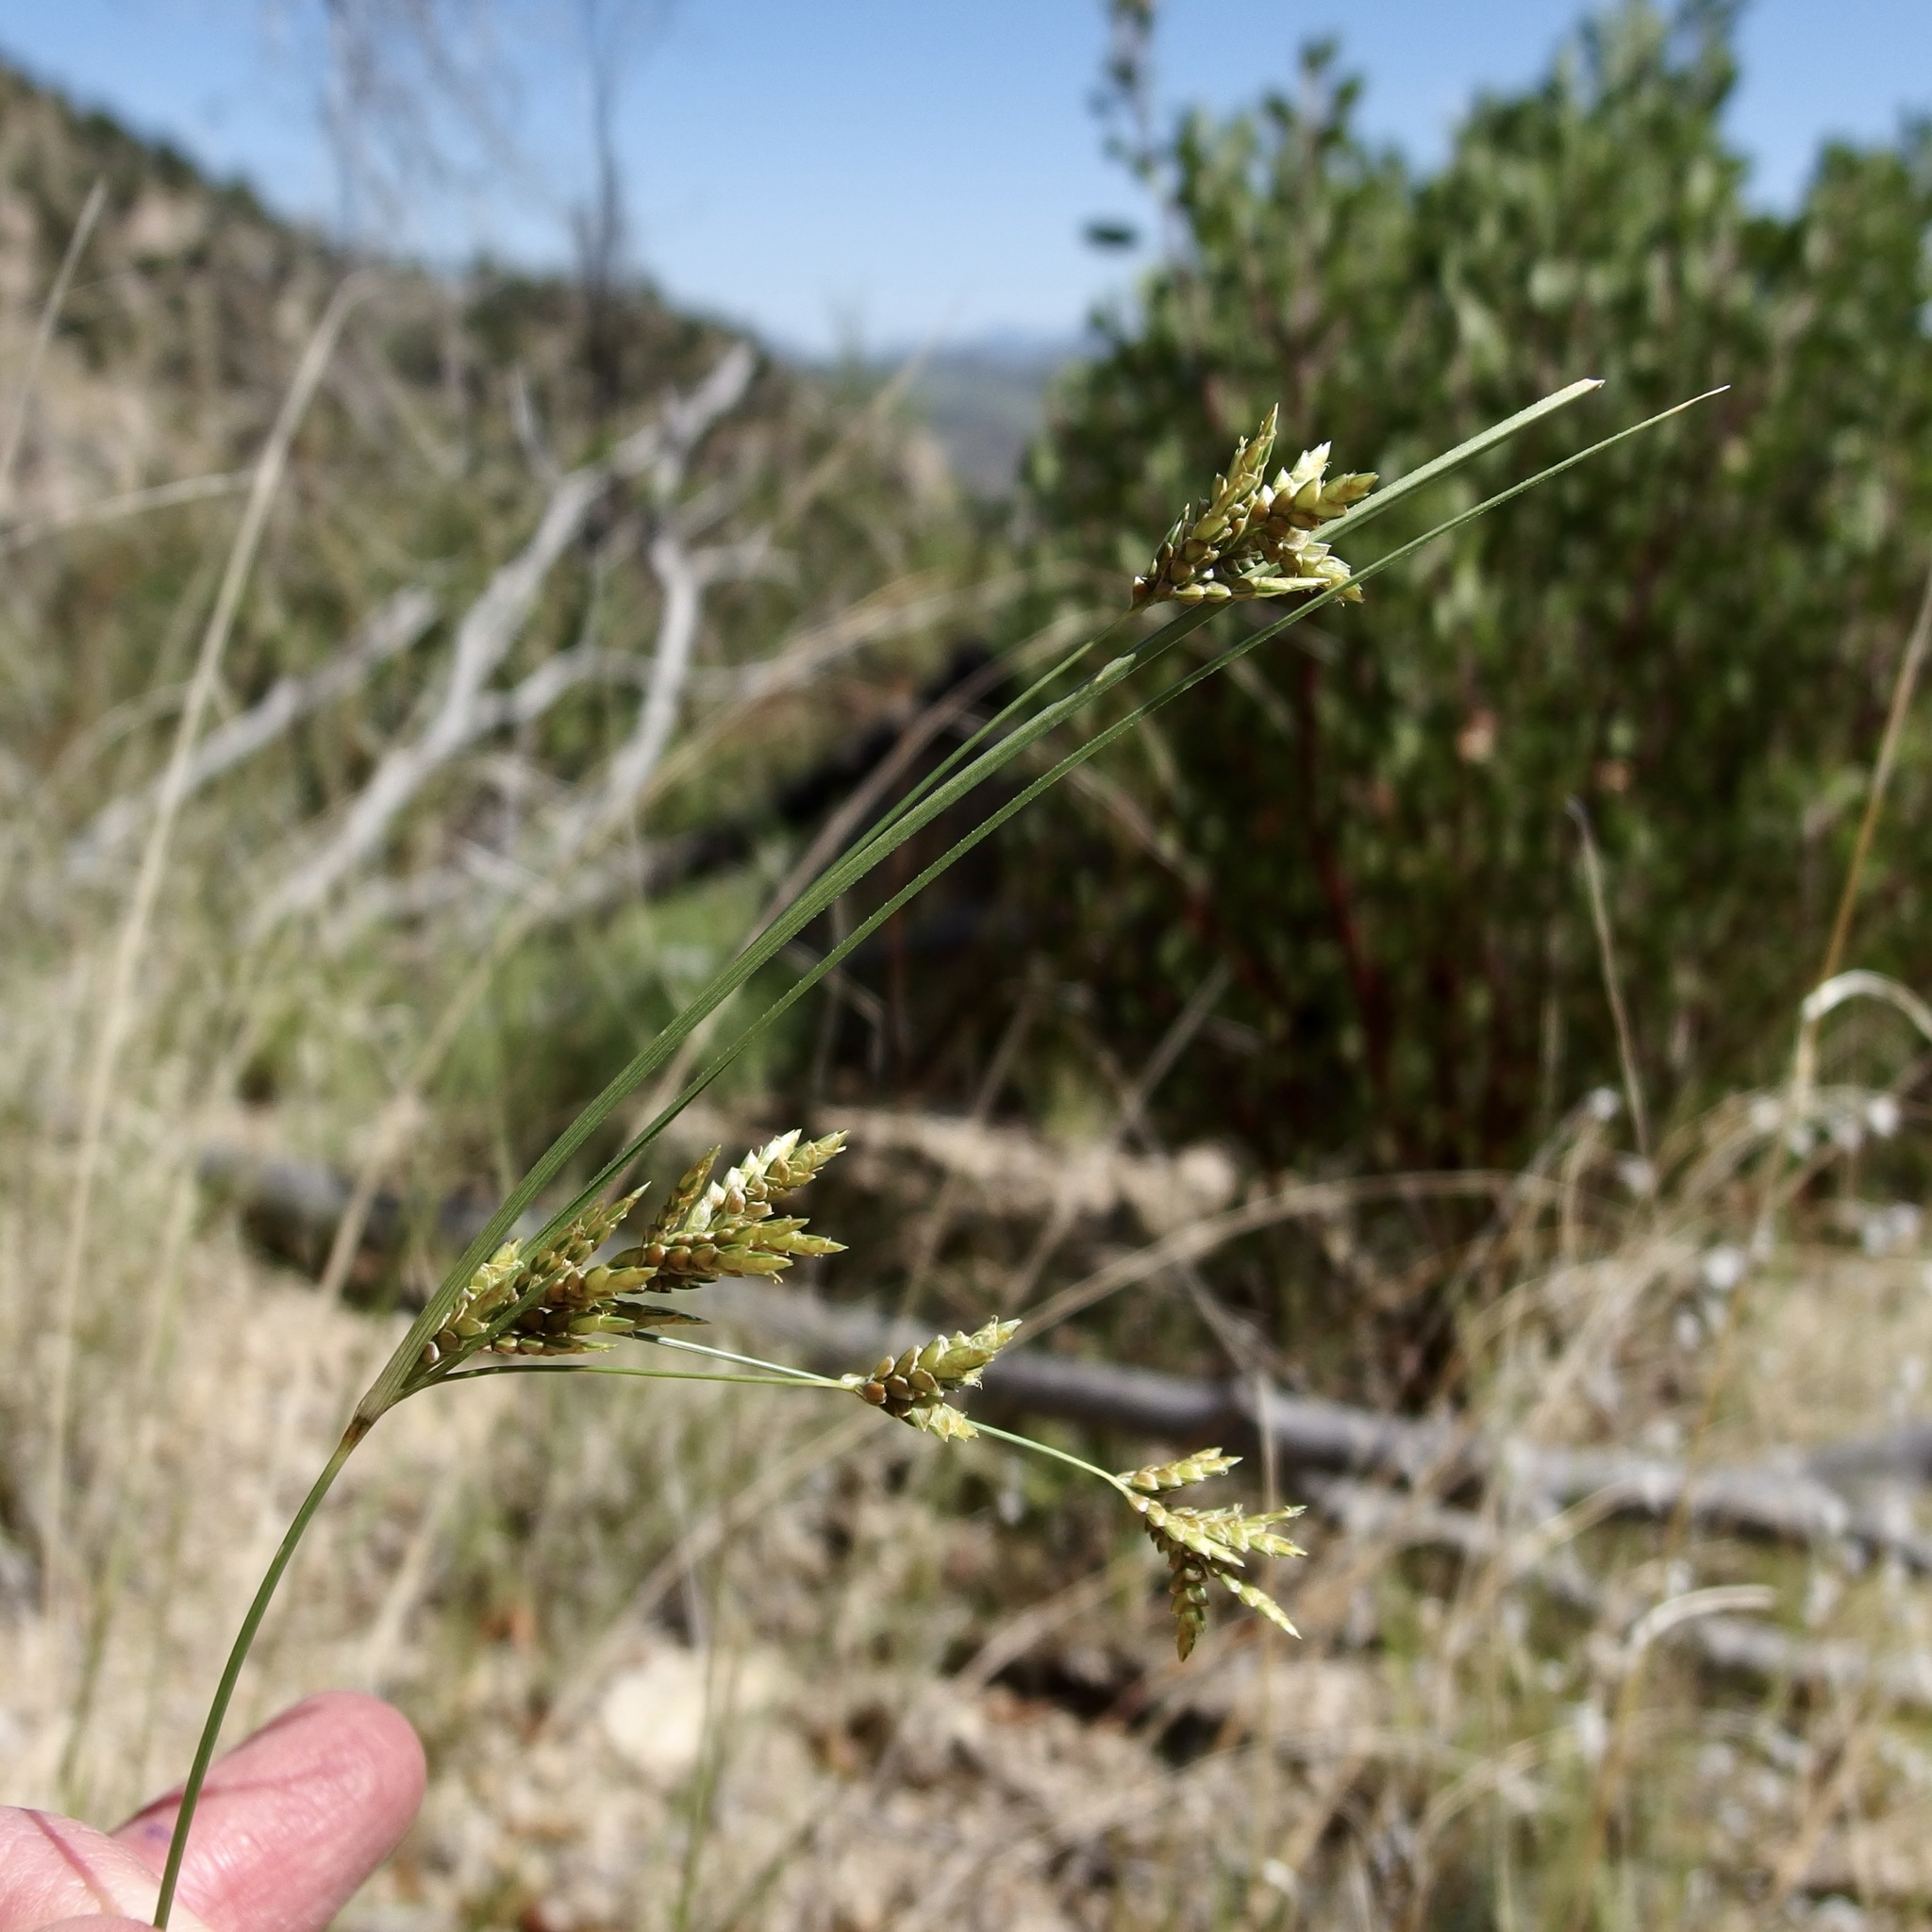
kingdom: Plantae
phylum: Tracheophyta
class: Liliopsida
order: Poales
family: Cyperaceae
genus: Cyperus
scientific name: Cyperus sphaerolepis
